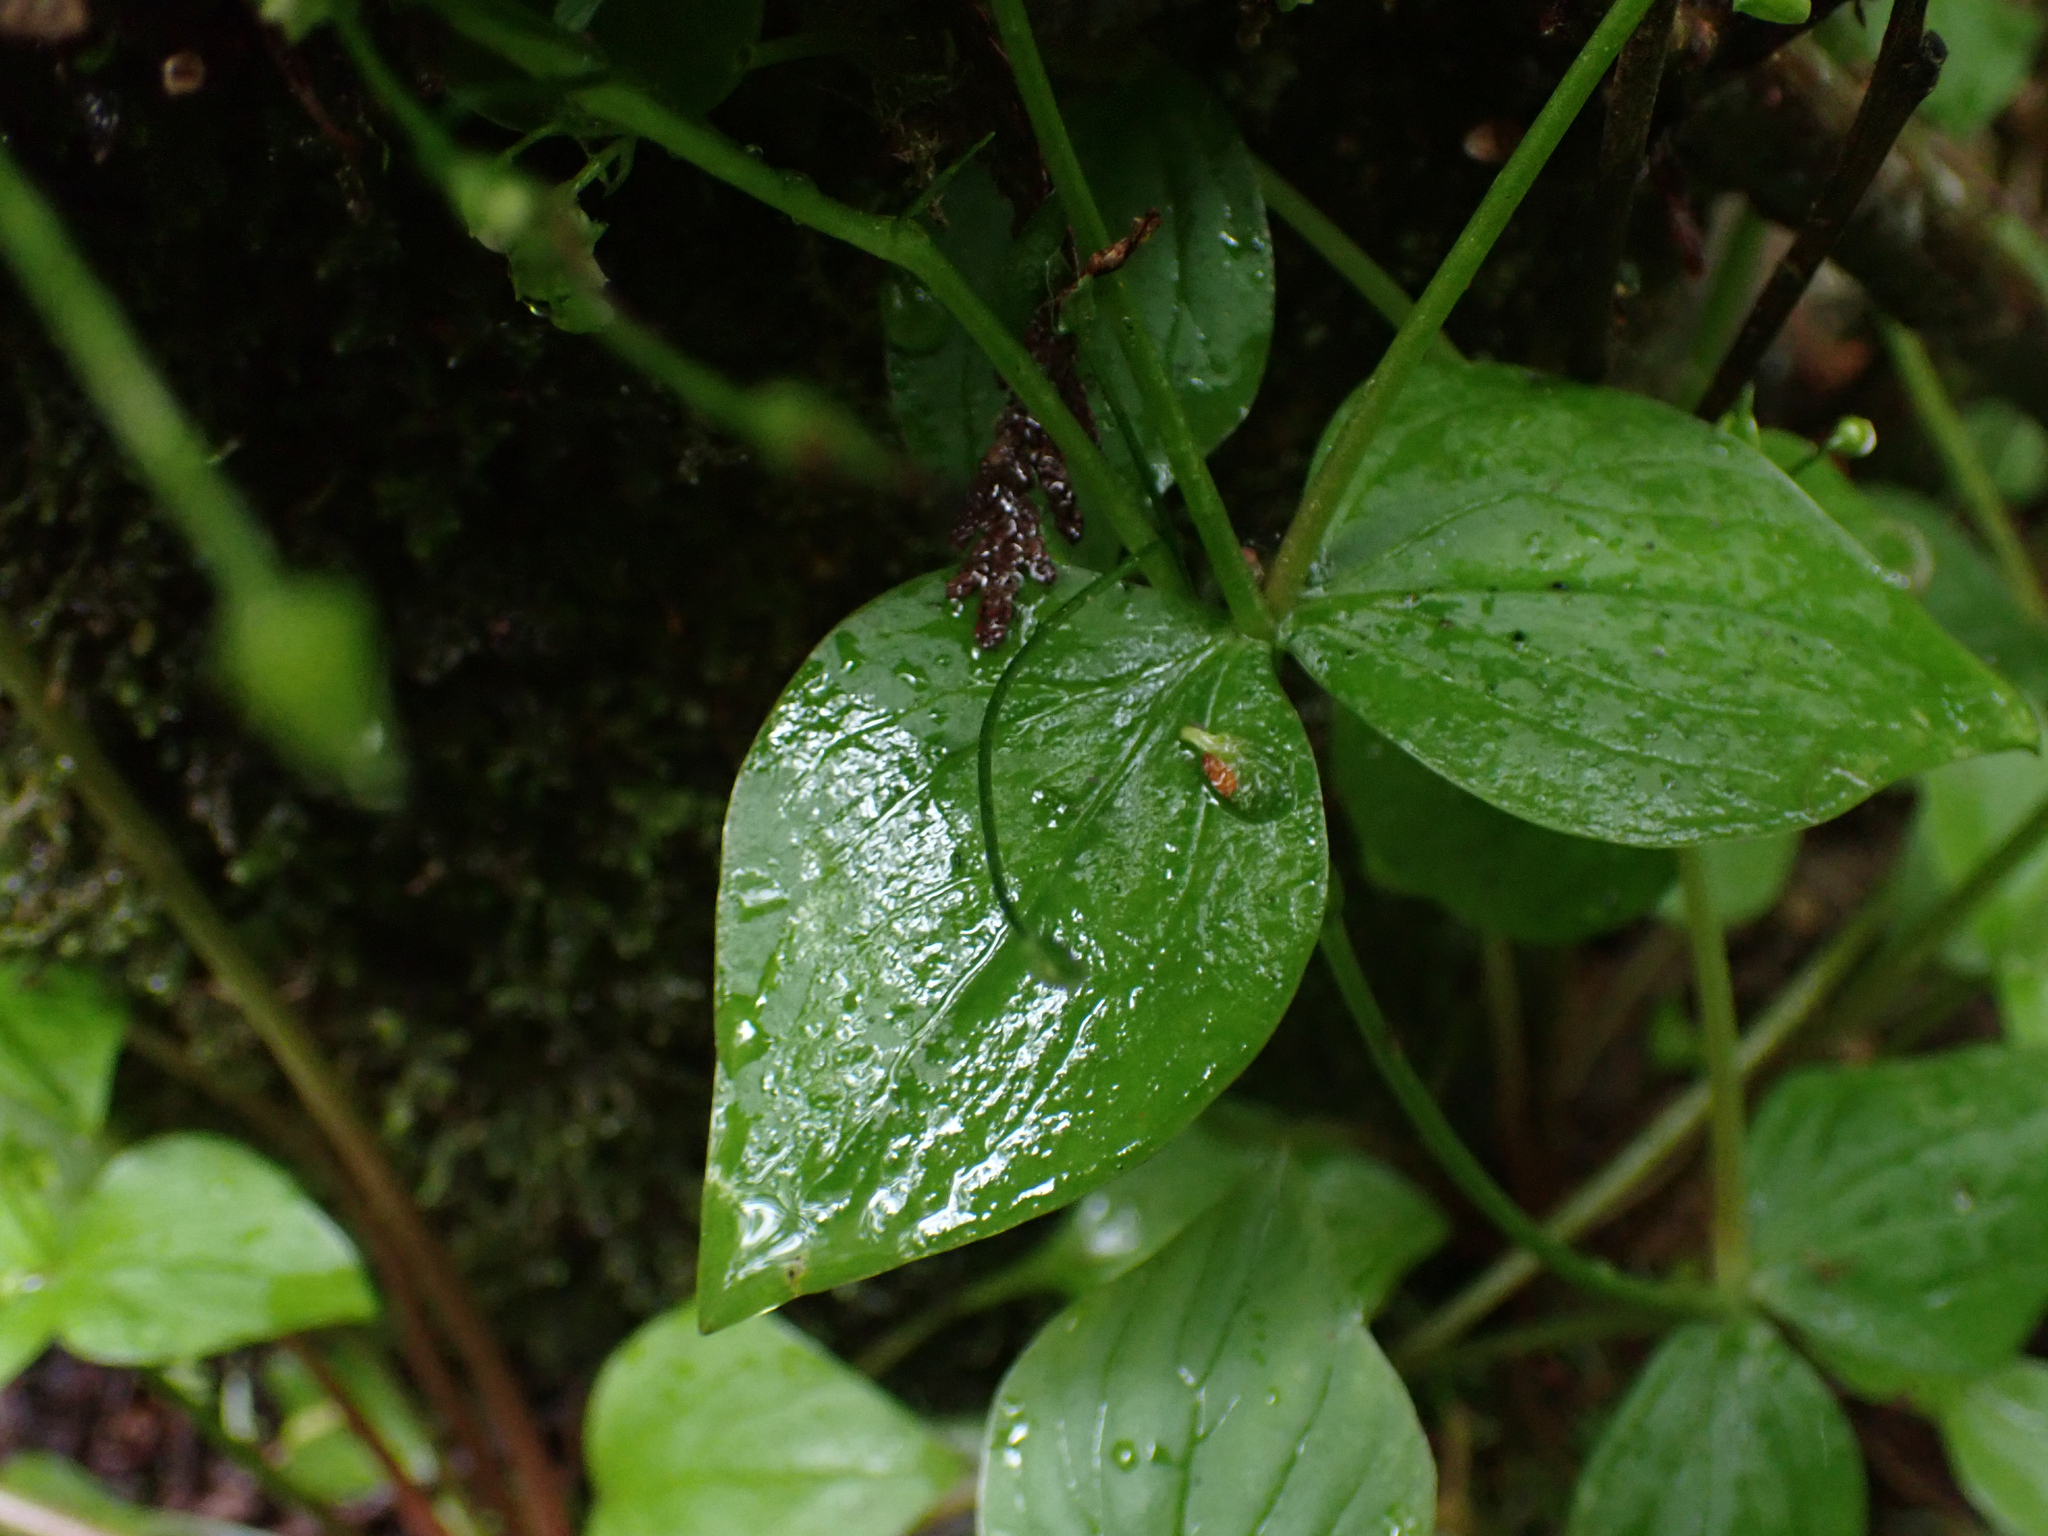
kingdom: Plantae
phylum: Tracheophyta
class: Magnoliopsida
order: Caryophyllales
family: Montiaceae
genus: Claytonia
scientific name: Claytonia sibirica
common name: Pink purslane
